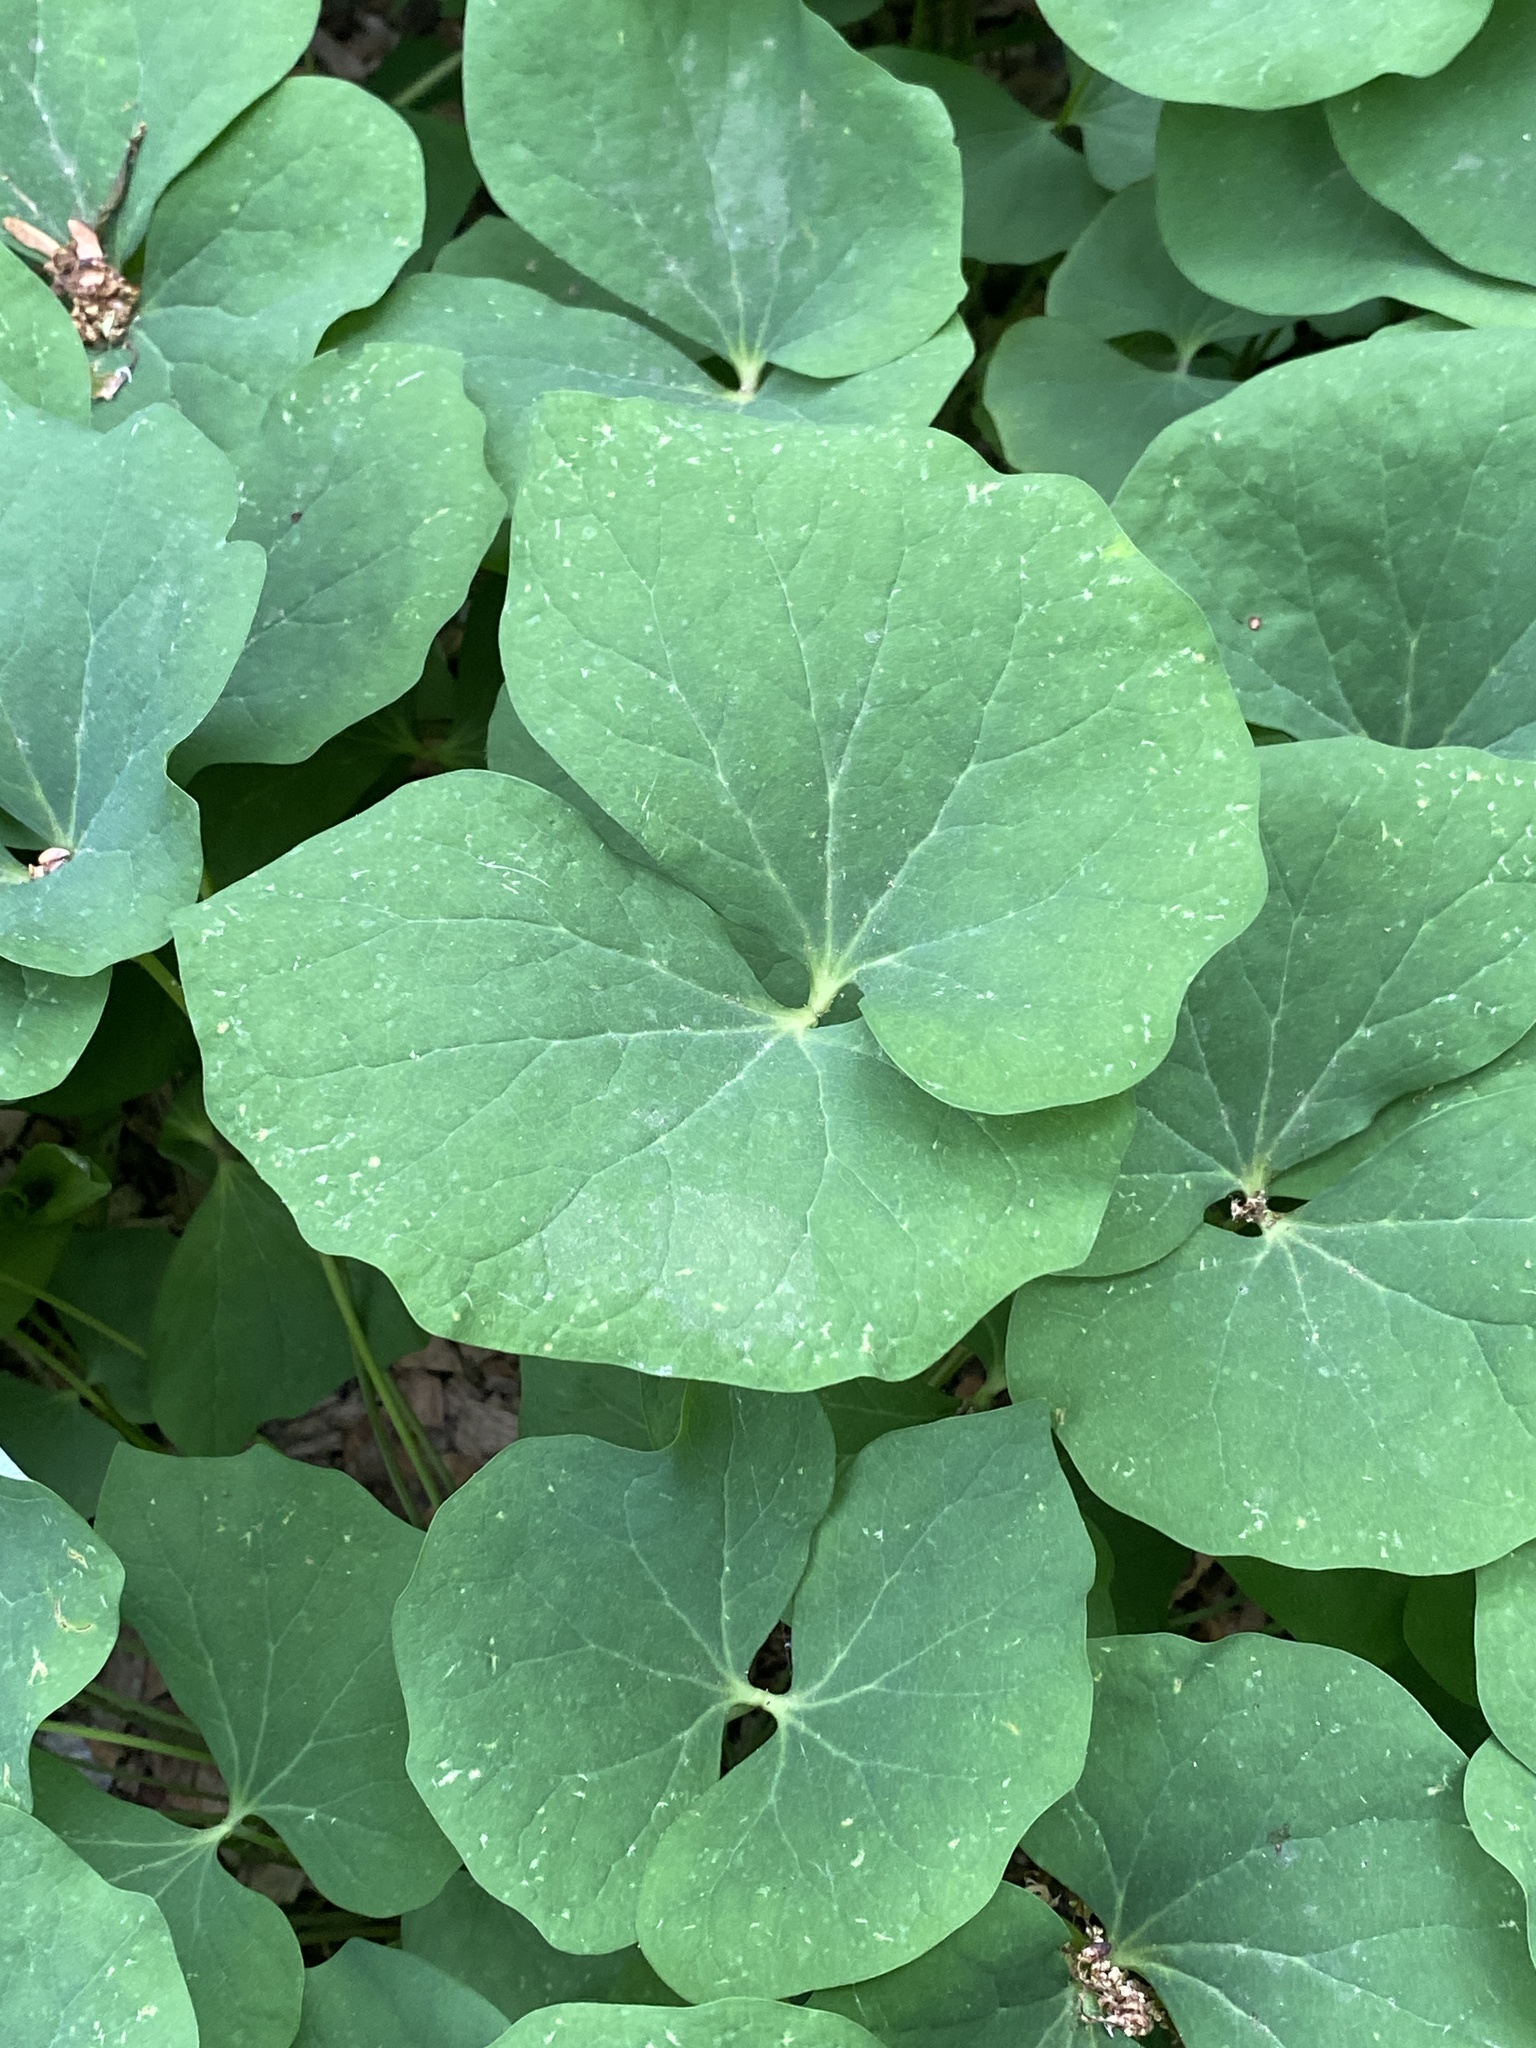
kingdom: Plantae
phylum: Tracheophyta
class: Magnoliopsida
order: Ranunculales
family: Berberidaceae
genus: Jeffersonia
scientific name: Jeffersonia diphylla
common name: Rheumatism-root
